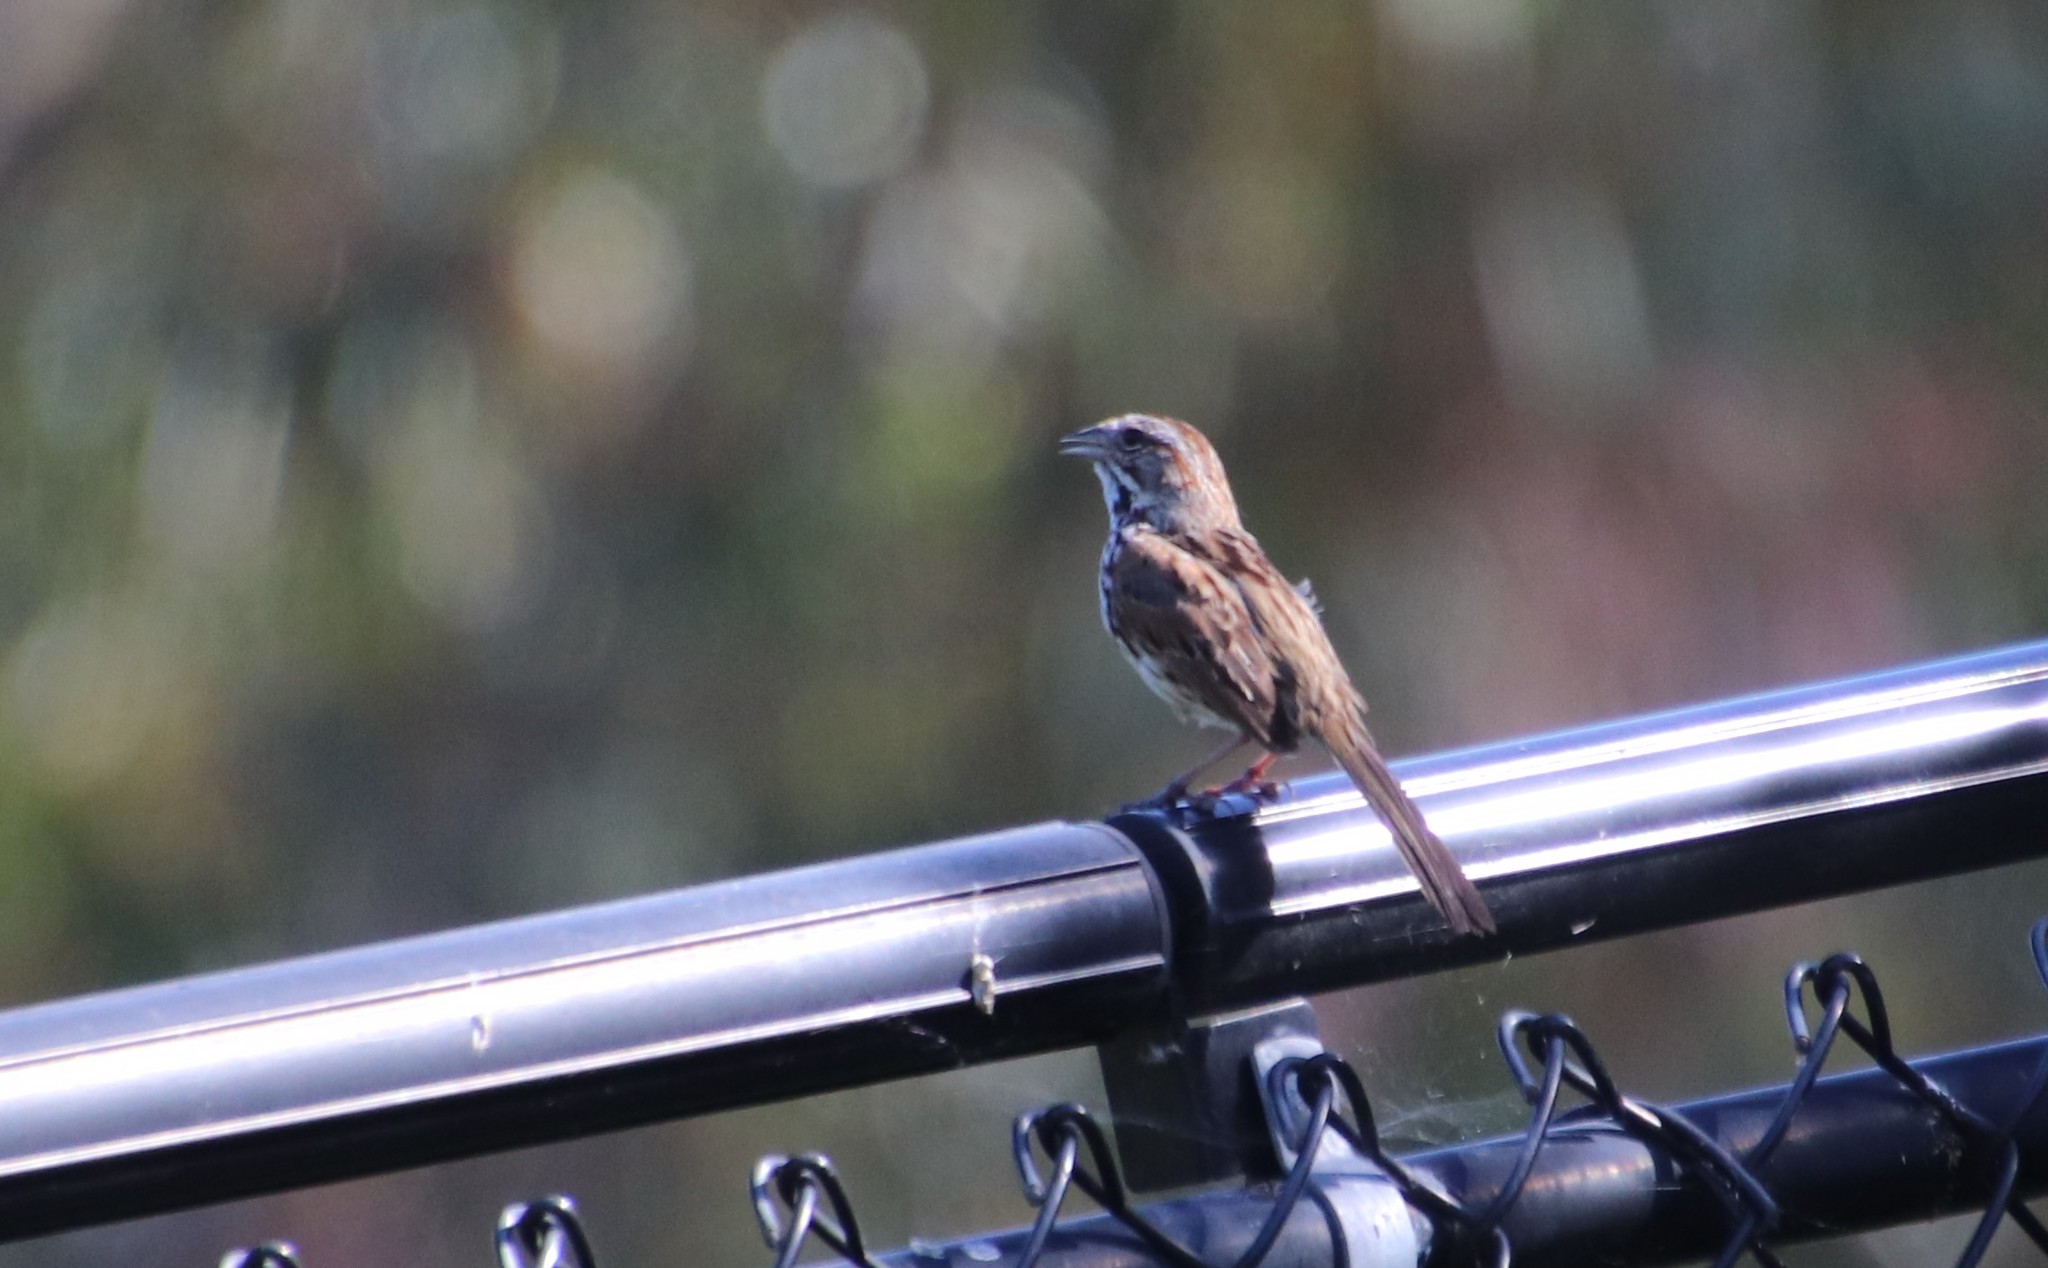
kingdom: Animalia
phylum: Chordata
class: Aves
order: Passeriformes
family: Passerellidae
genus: Melospiza
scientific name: Melospiza melodia
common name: Song sparrow
